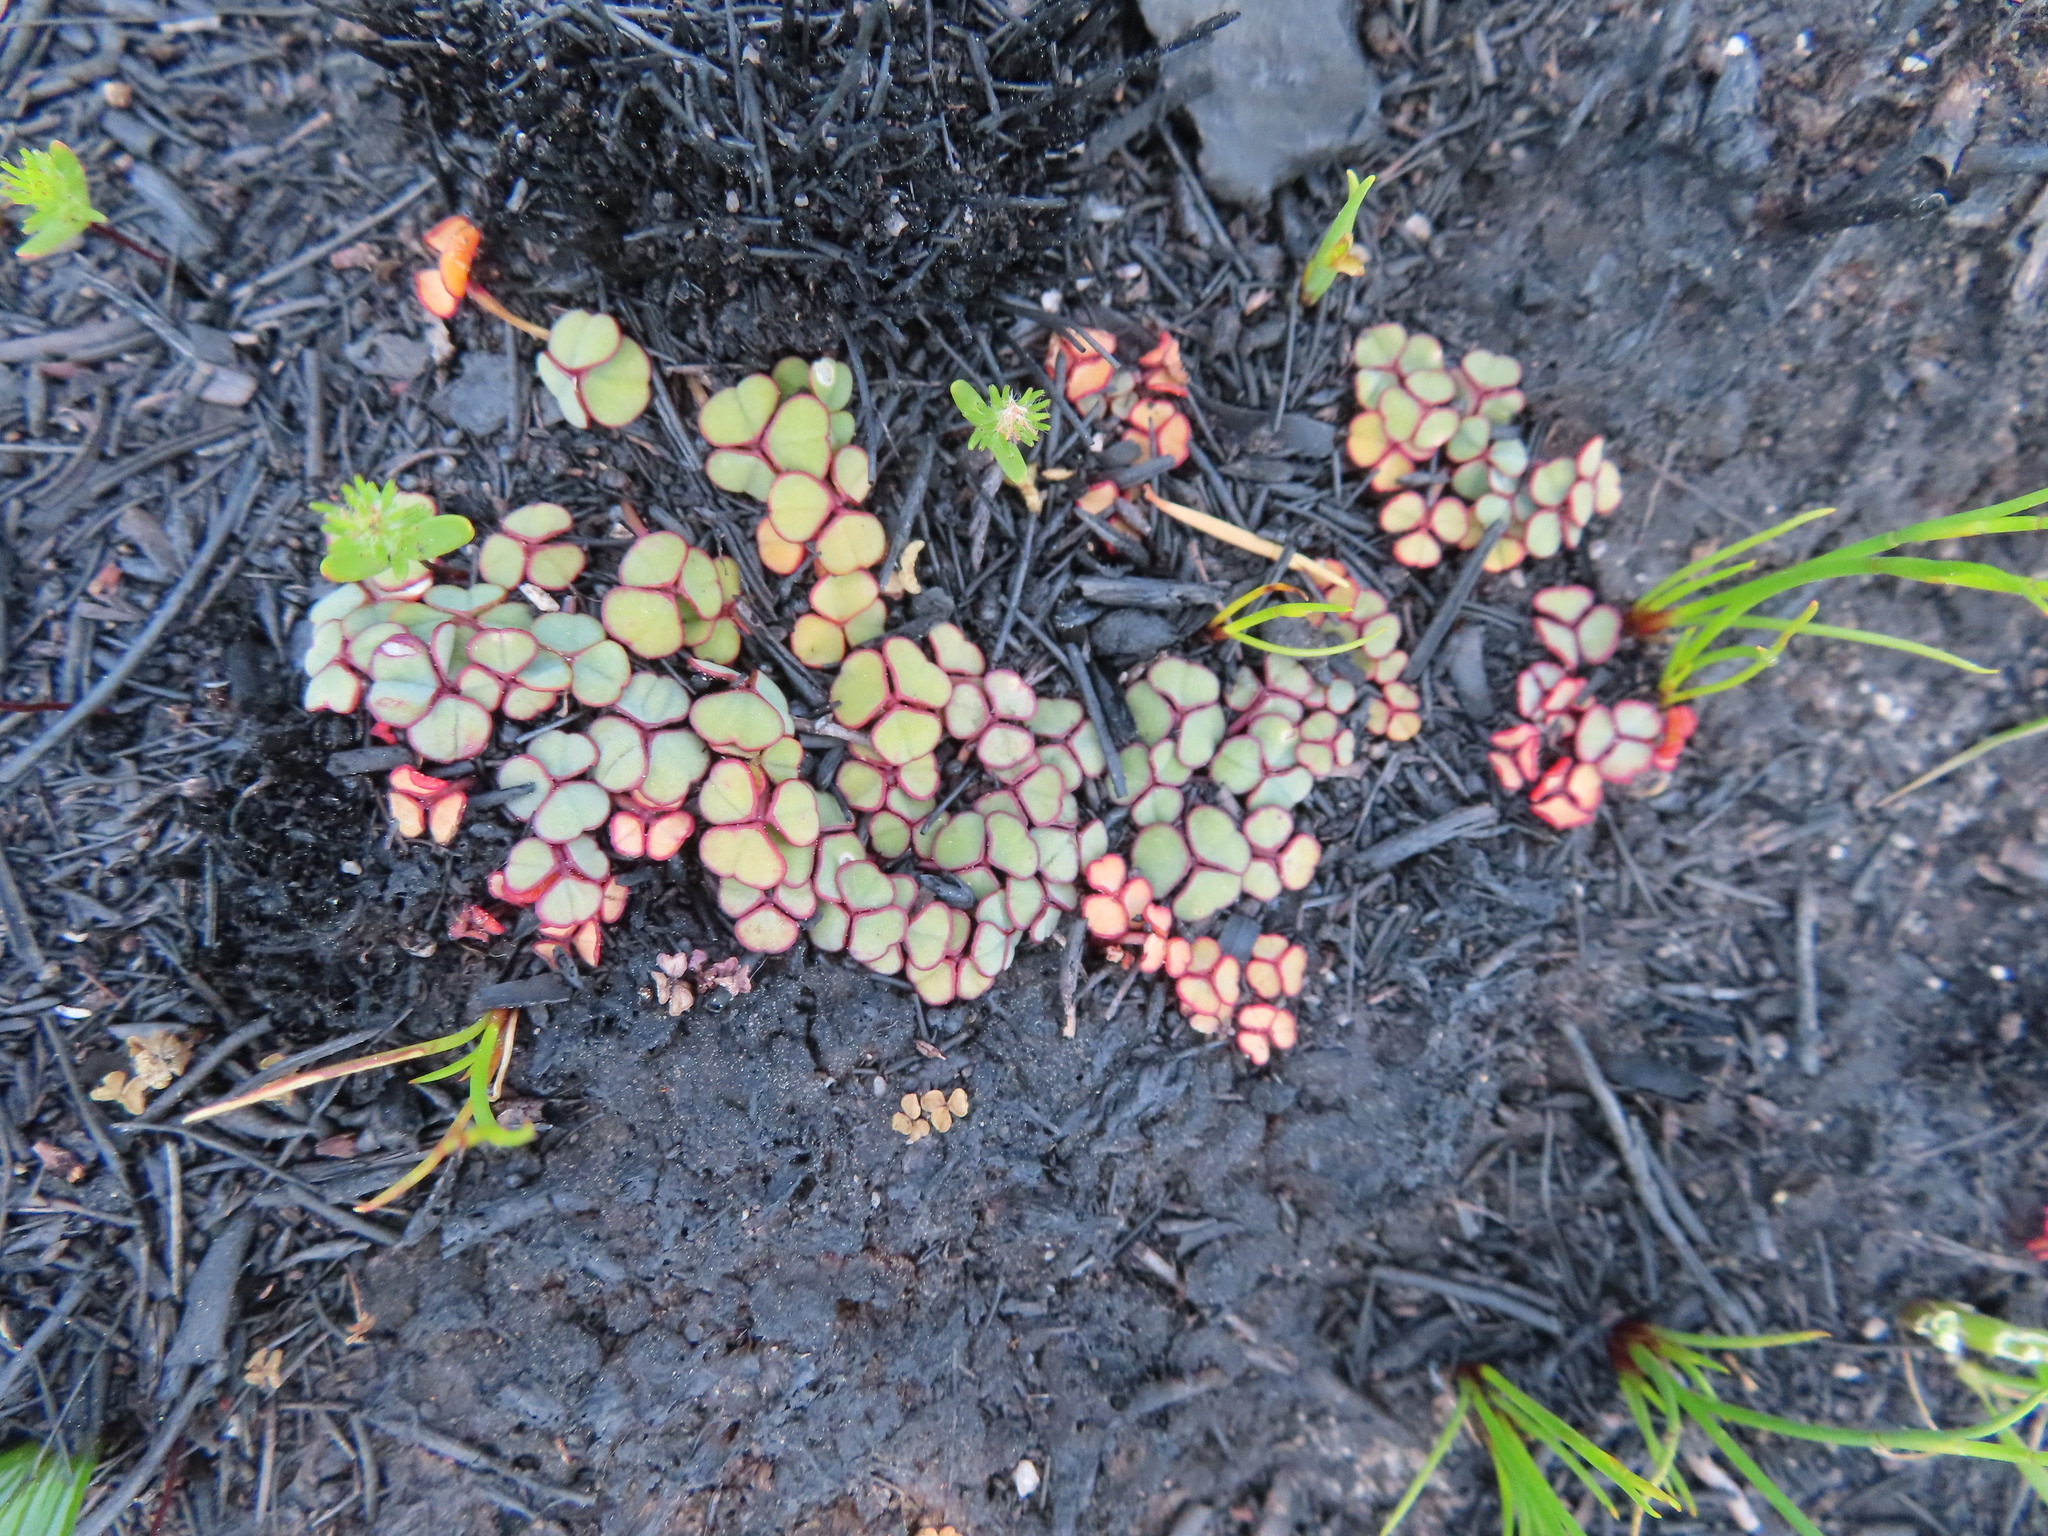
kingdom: Plantae
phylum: Tracheophyta
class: Magnoliopsida
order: Oxalidales
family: Oxalidaceae
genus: Oxalis
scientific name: Oxalis commutata
